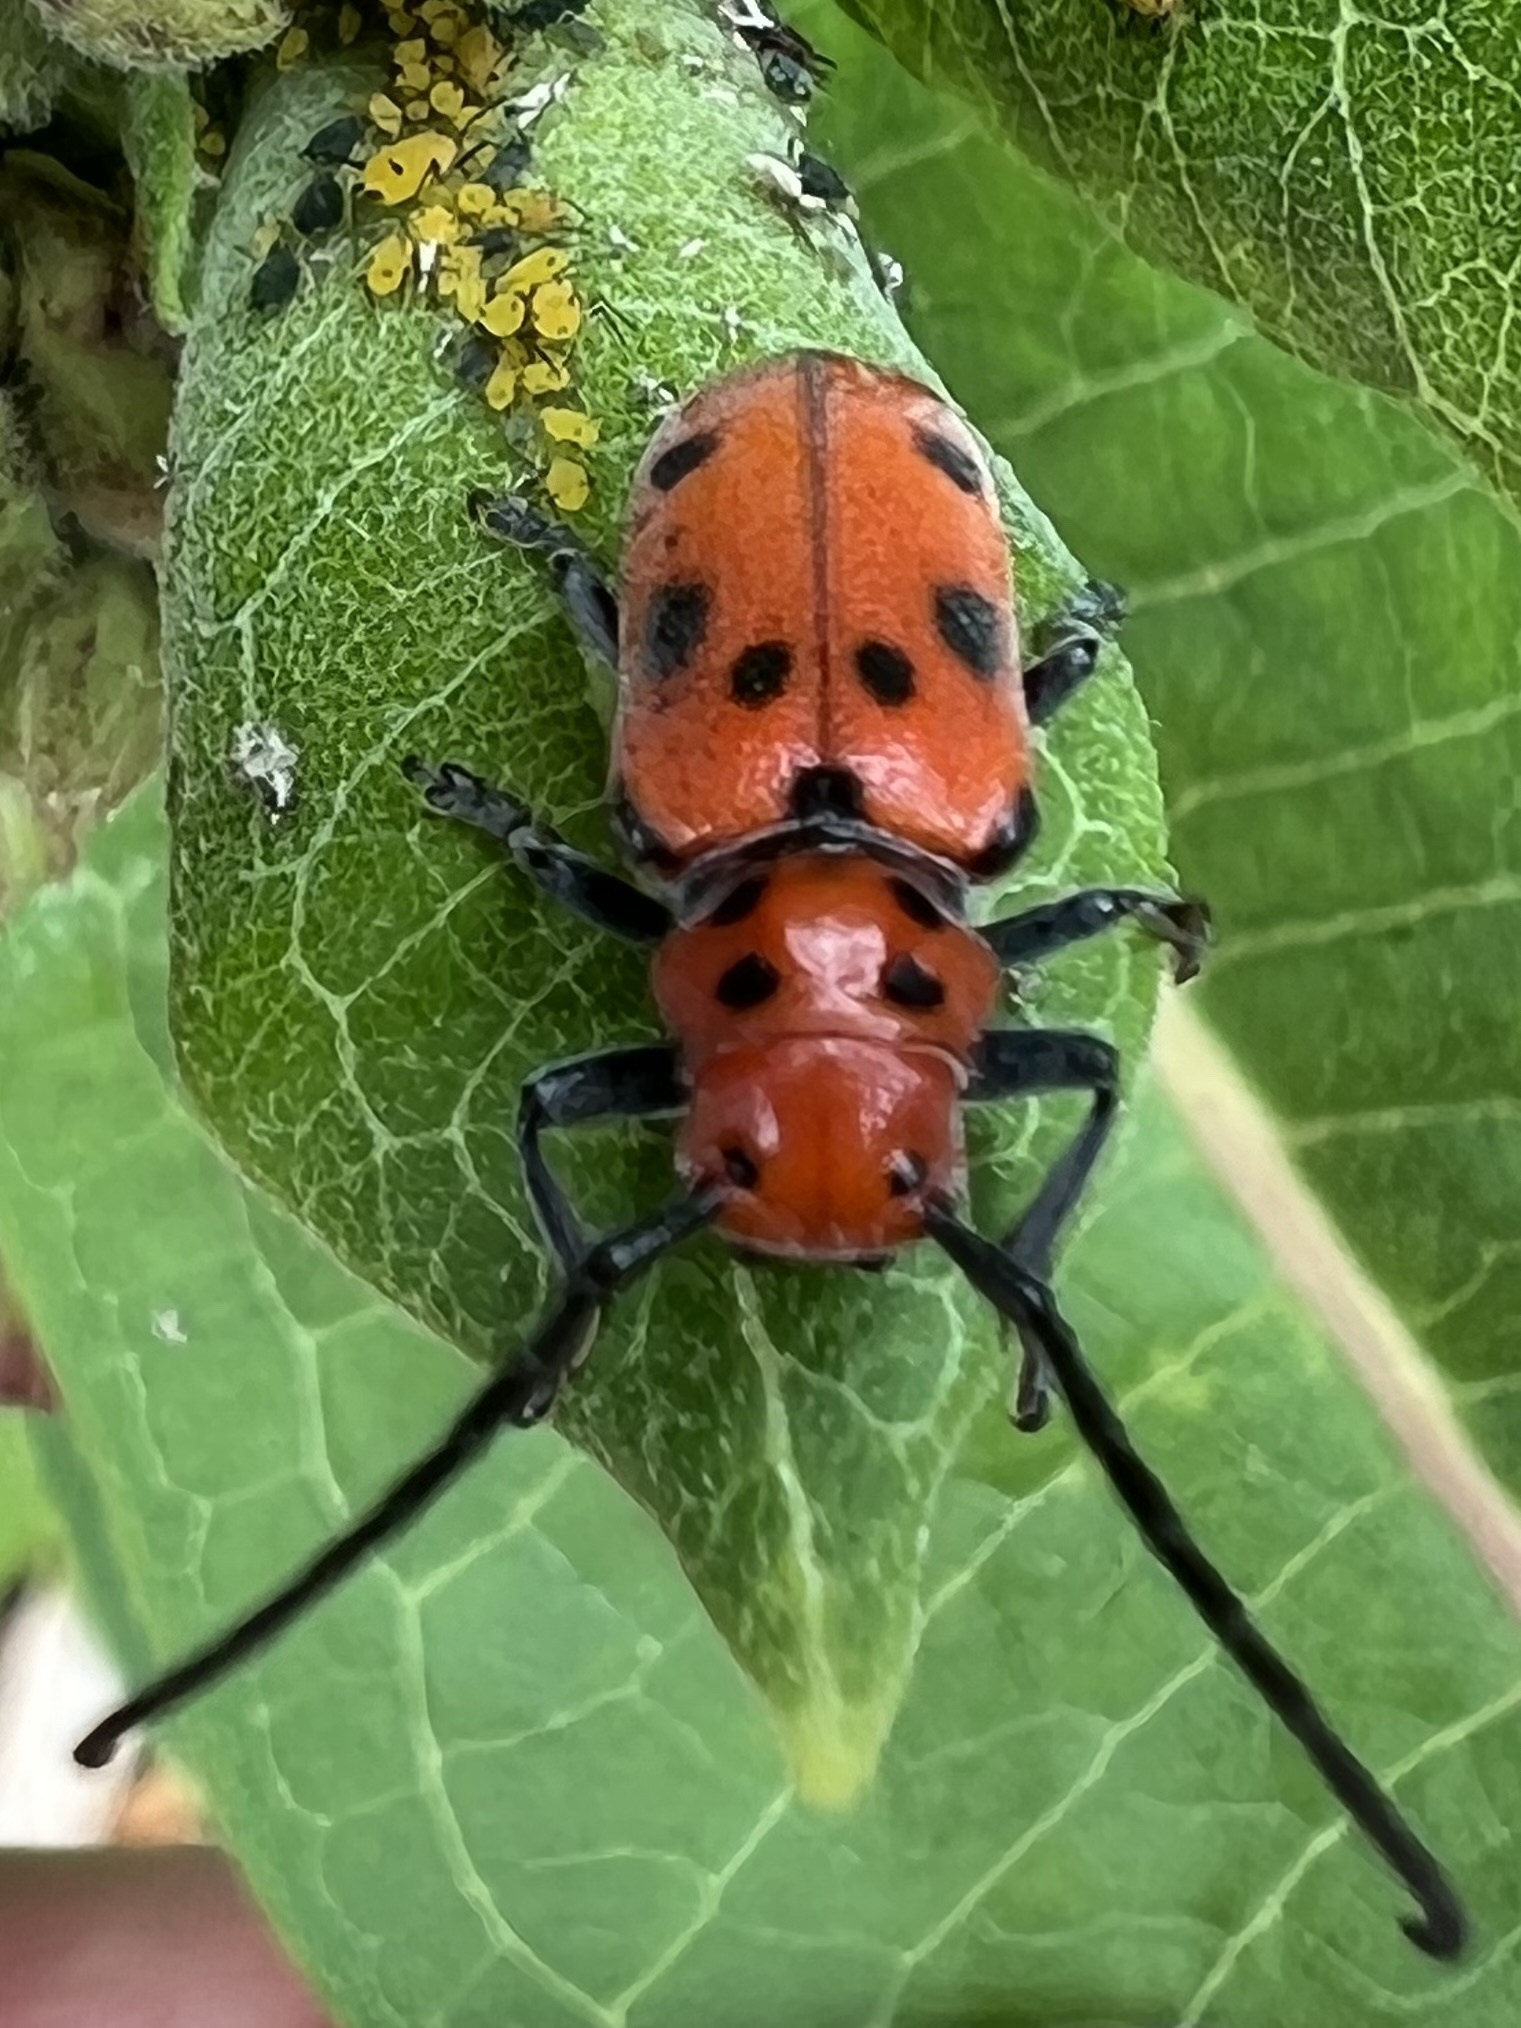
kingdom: Animalia
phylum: Arthropoda
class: Insecta
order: Coleoptera
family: Cerambycidae
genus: Tetraopes
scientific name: Tetraopes tetrophthalmus
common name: Red milkweed beetle
